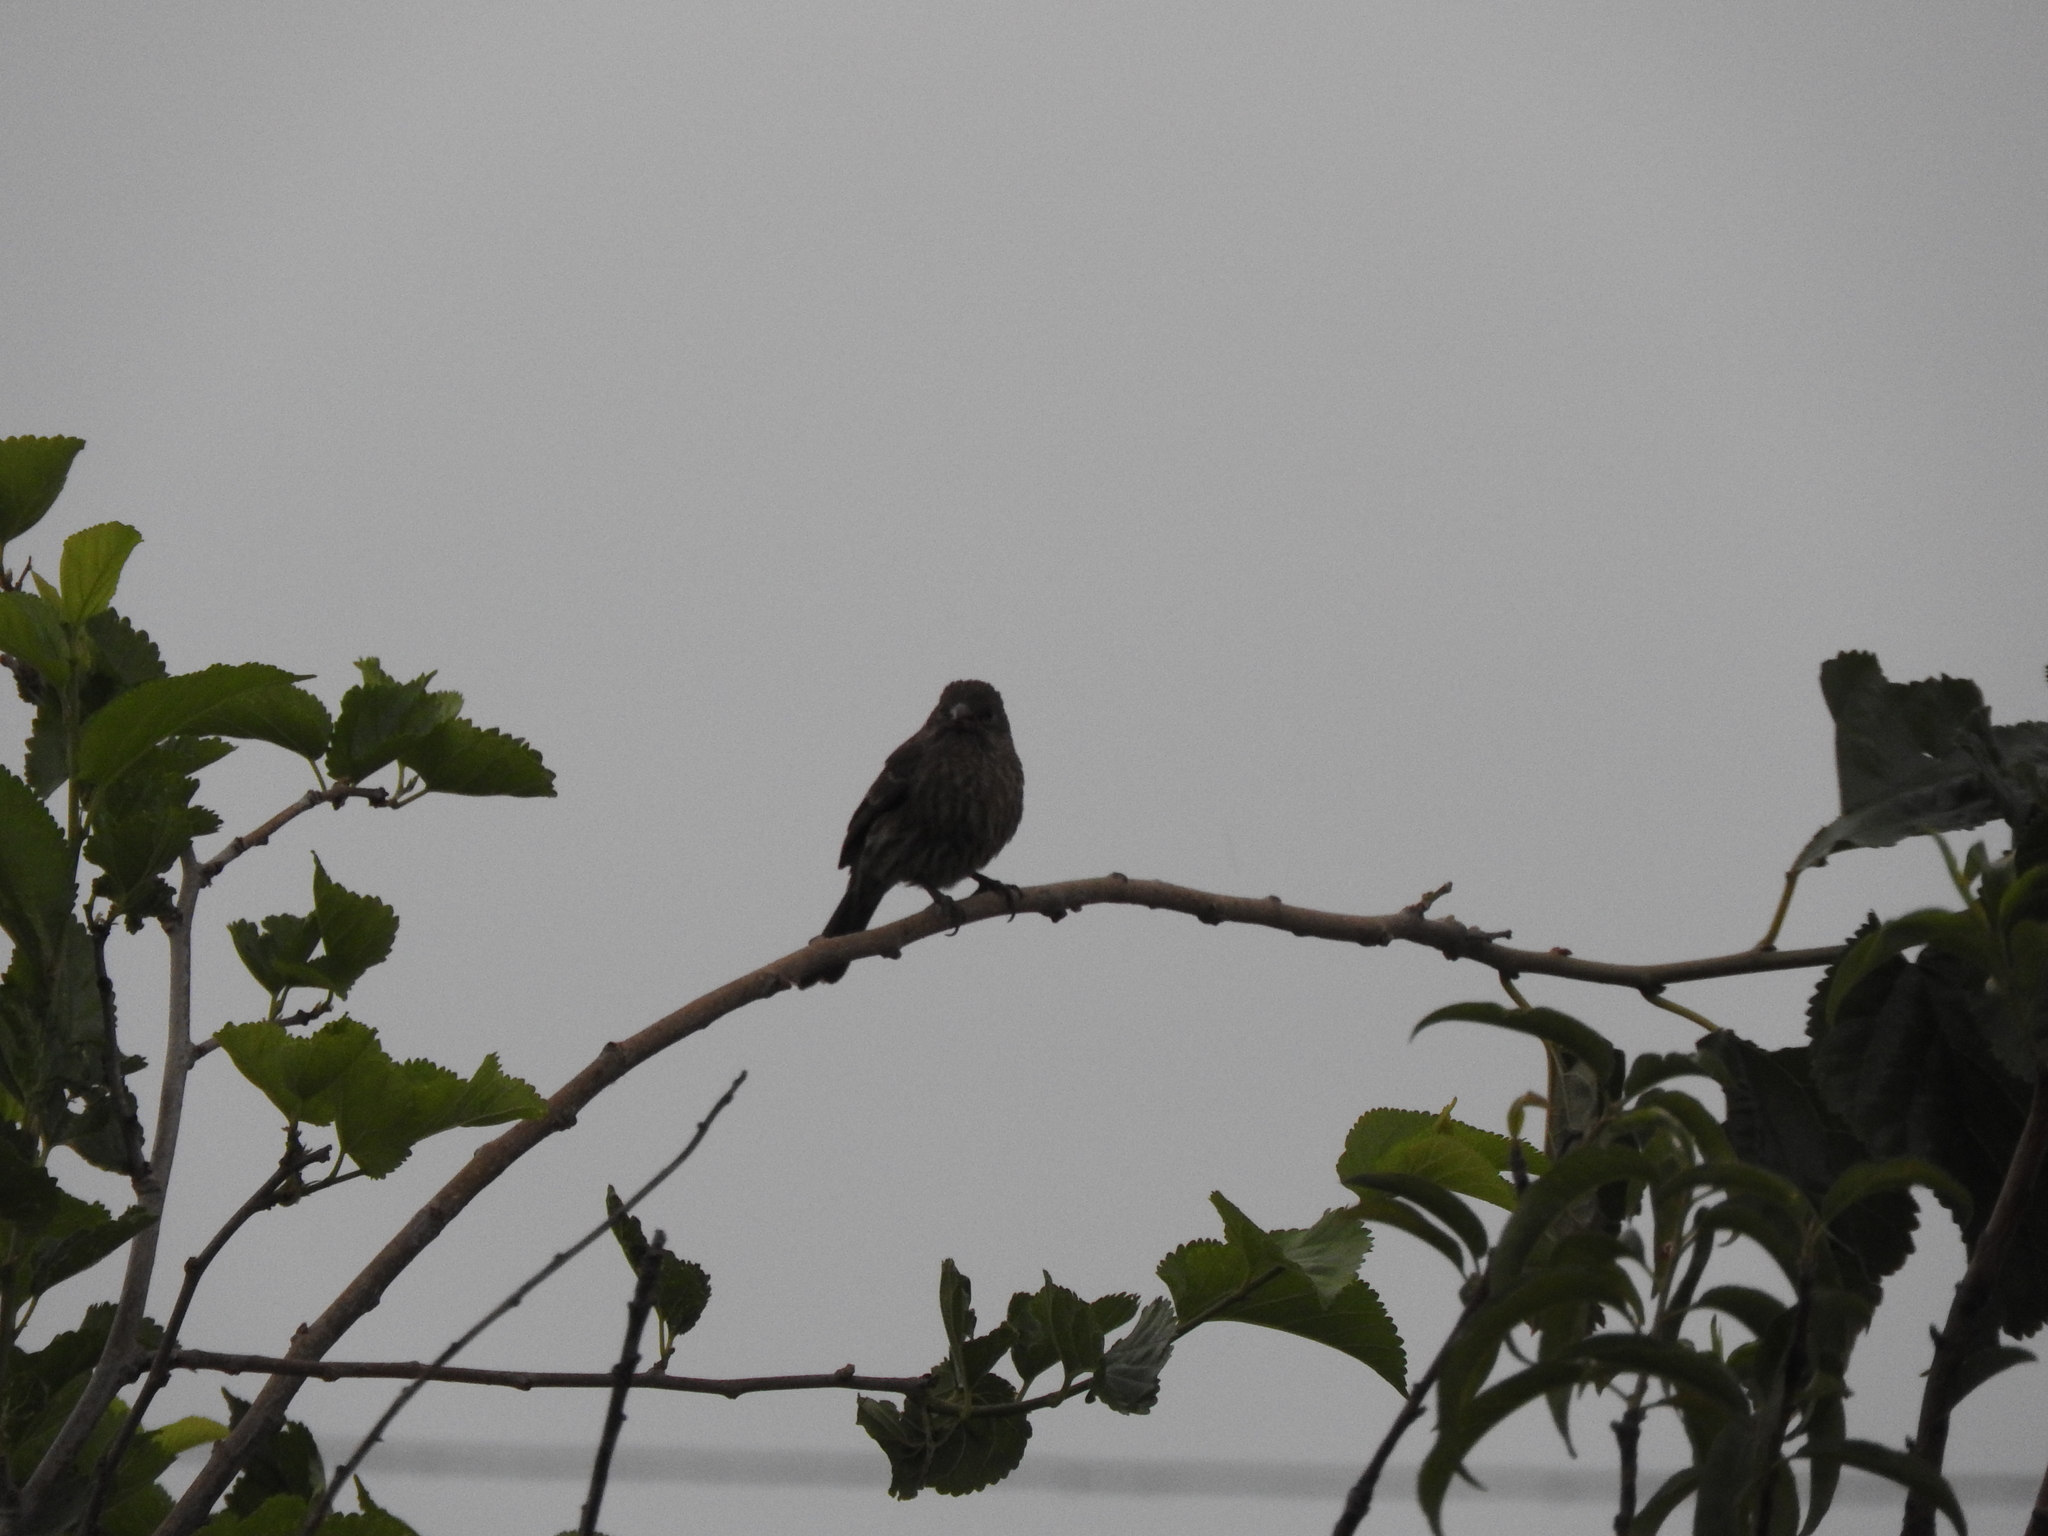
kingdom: Animalia
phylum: Chordata
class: Aves
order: Passeriformes
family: Fringillidae
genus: Haemorhous
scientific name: Haemorhous mexicanus
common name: House finch
